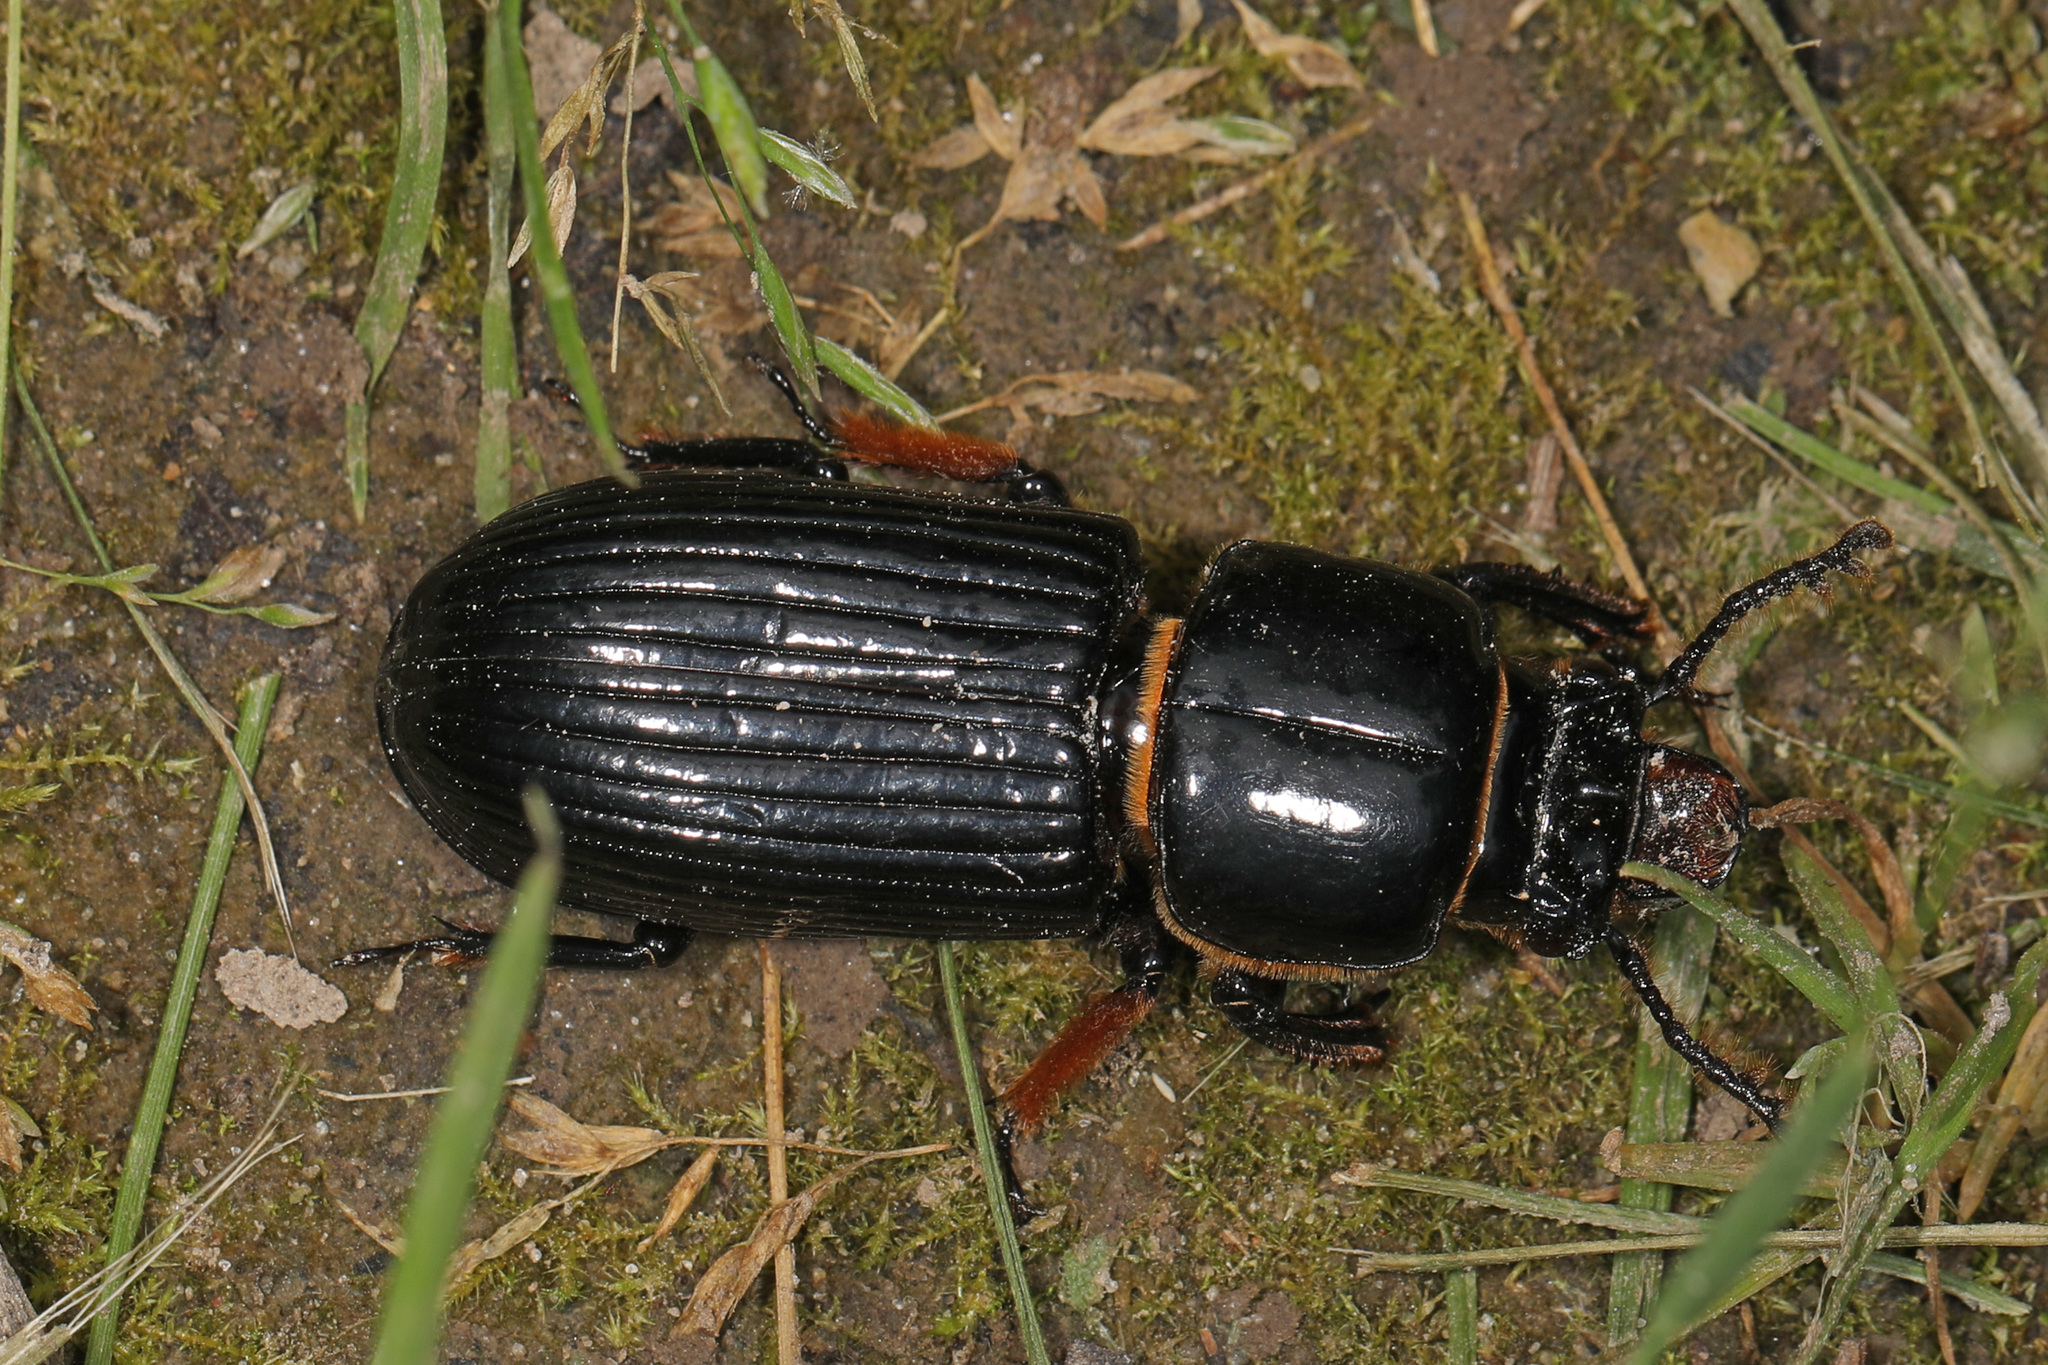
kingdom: Animalia
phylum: Arthropoda
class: Insecta
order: Coleoptera
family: Passalidae
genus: Odontotaenius
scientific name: Odontotaenius disjunctus
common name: Patent leather beetle
